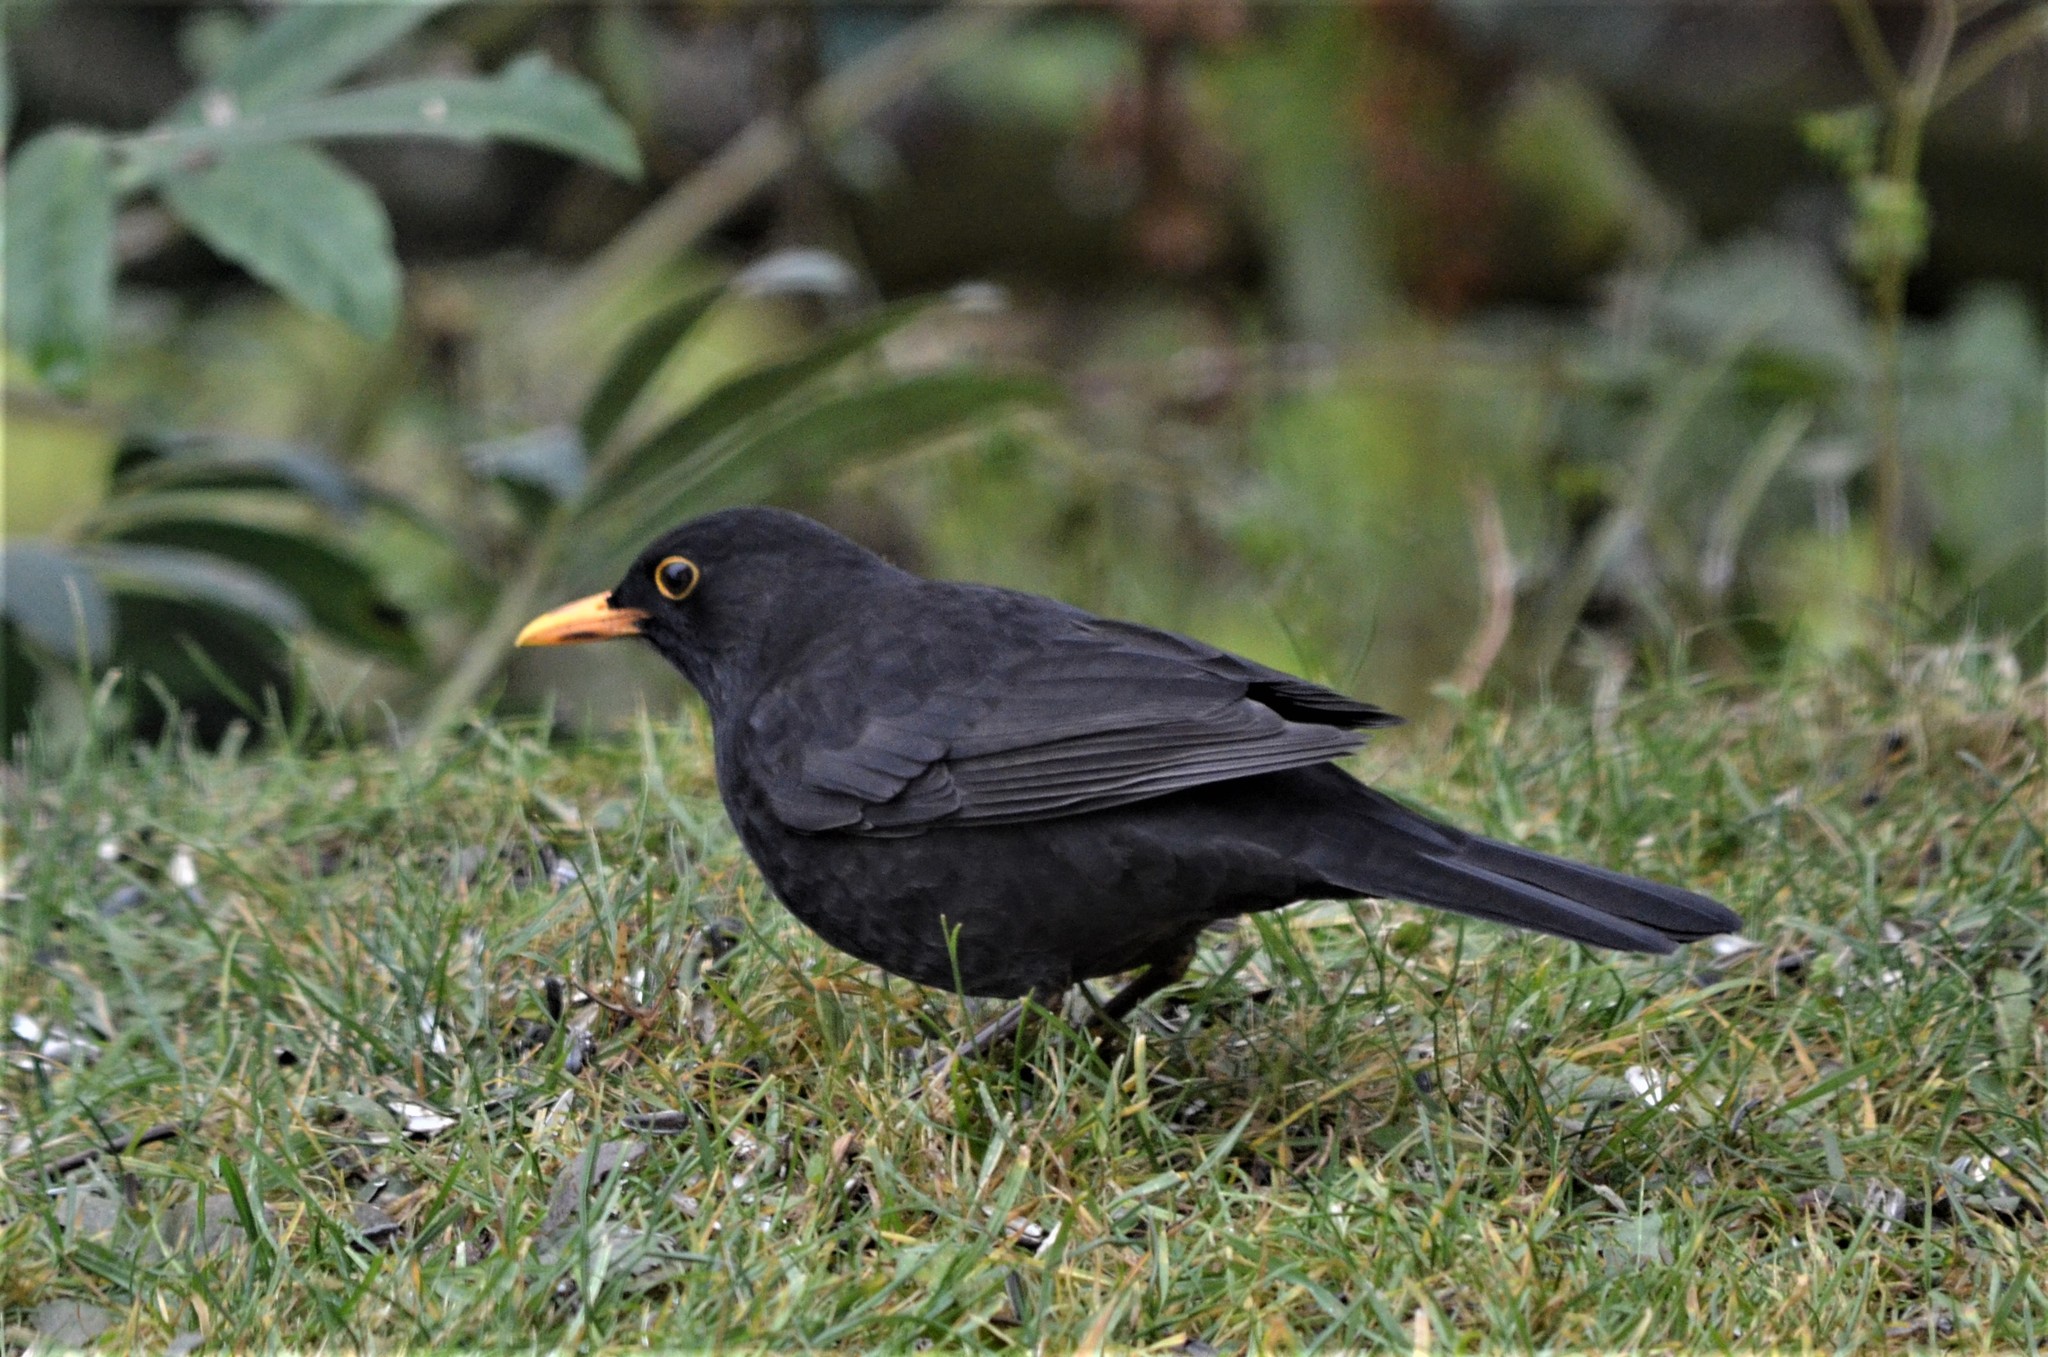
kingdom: Animalia
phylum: Chordata
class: Aves
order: Passeriformes
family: Turdidae
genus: Turdus
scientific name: Turdus merula
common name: Common blackbird
